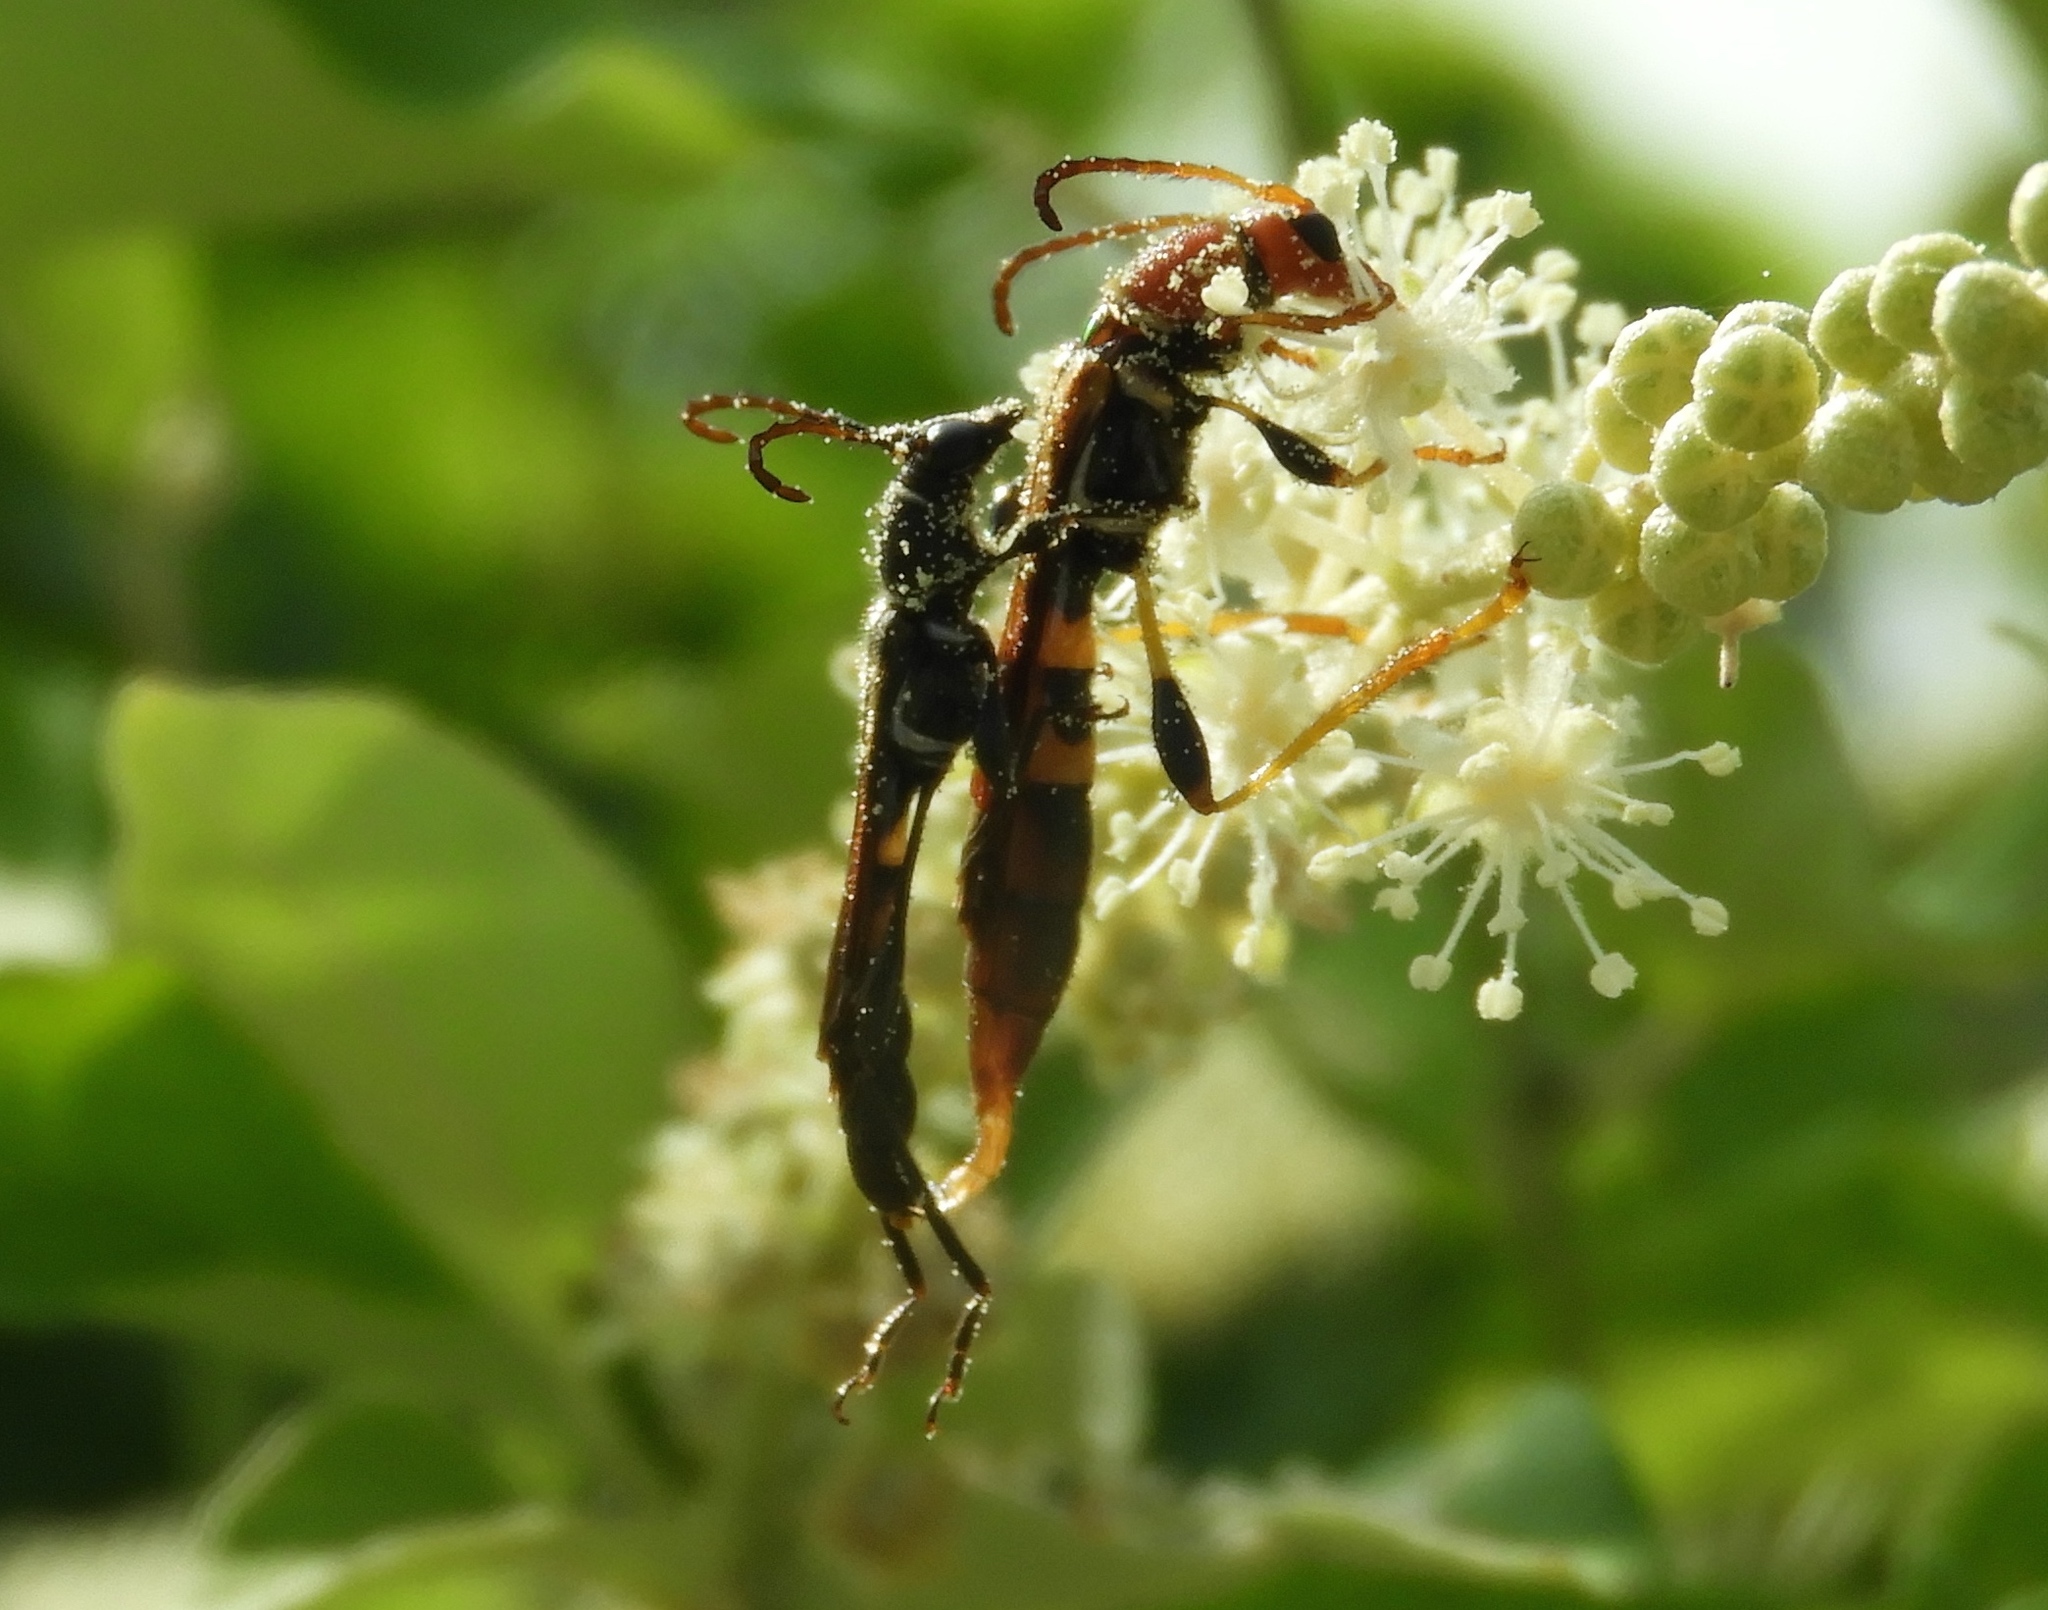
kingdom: Animalia
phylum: Arthropoda
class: Insecta
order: Coleoptera
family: Cerambycidae
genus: Odontocera
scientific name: Odontocera aurocincta
